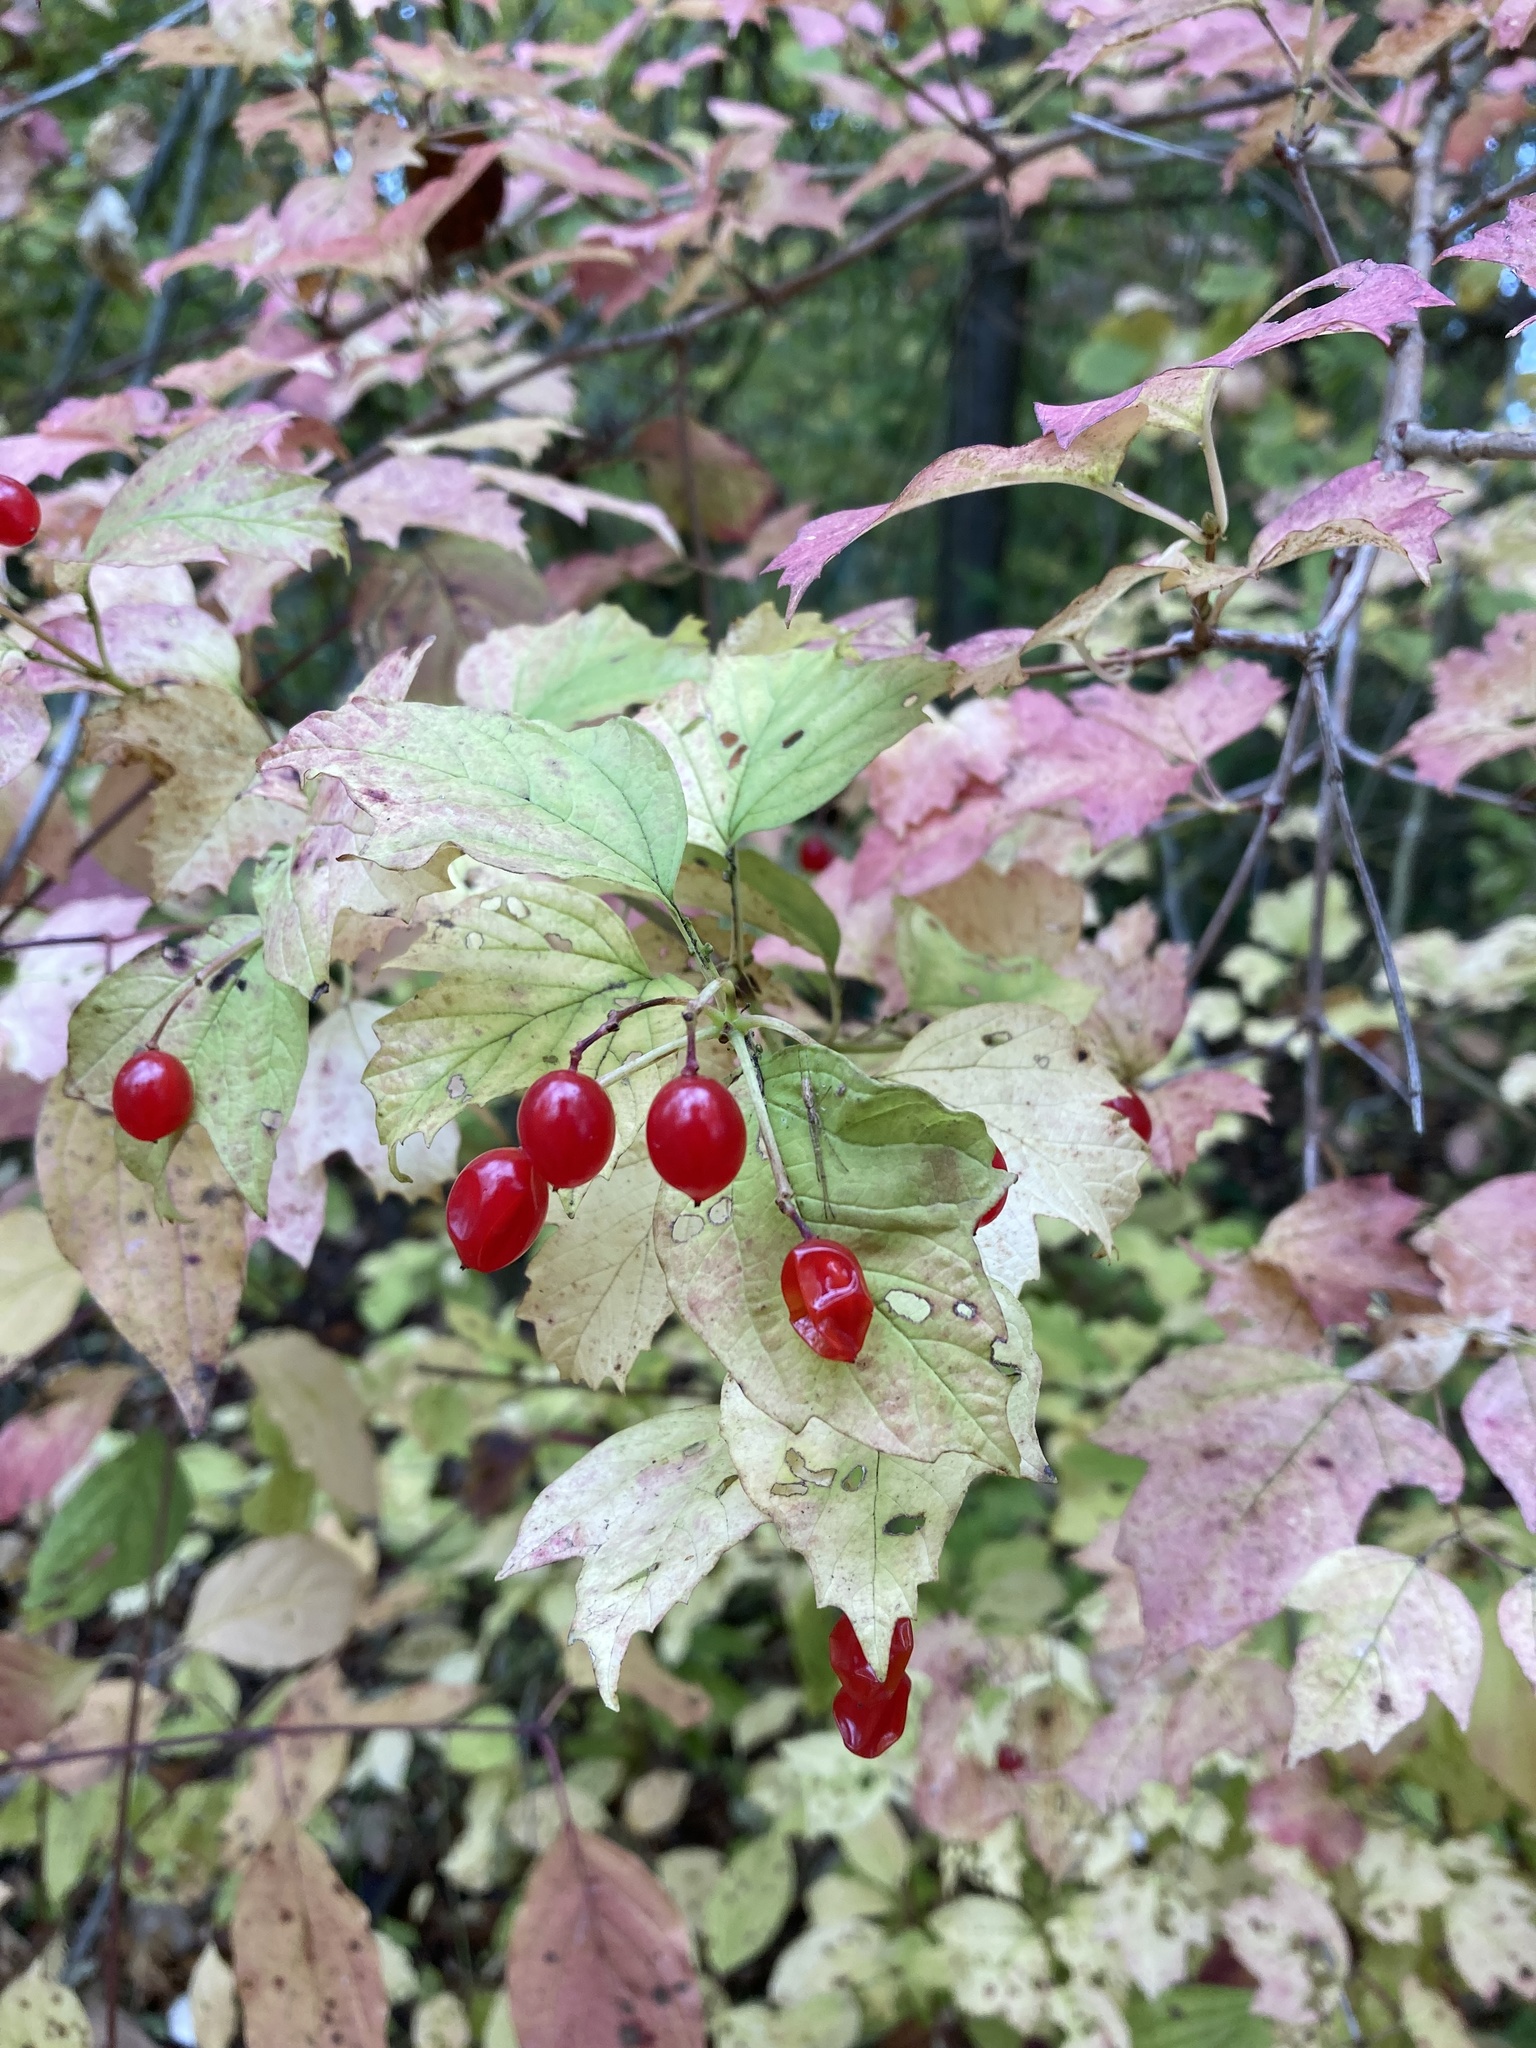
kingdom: Plantae
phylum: Tracheophyta
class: Magnoliopsida
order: Dipsacales
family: Viburnaceae
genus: Viburnum
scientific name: Viburnum opulus
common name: Guelder-rose
